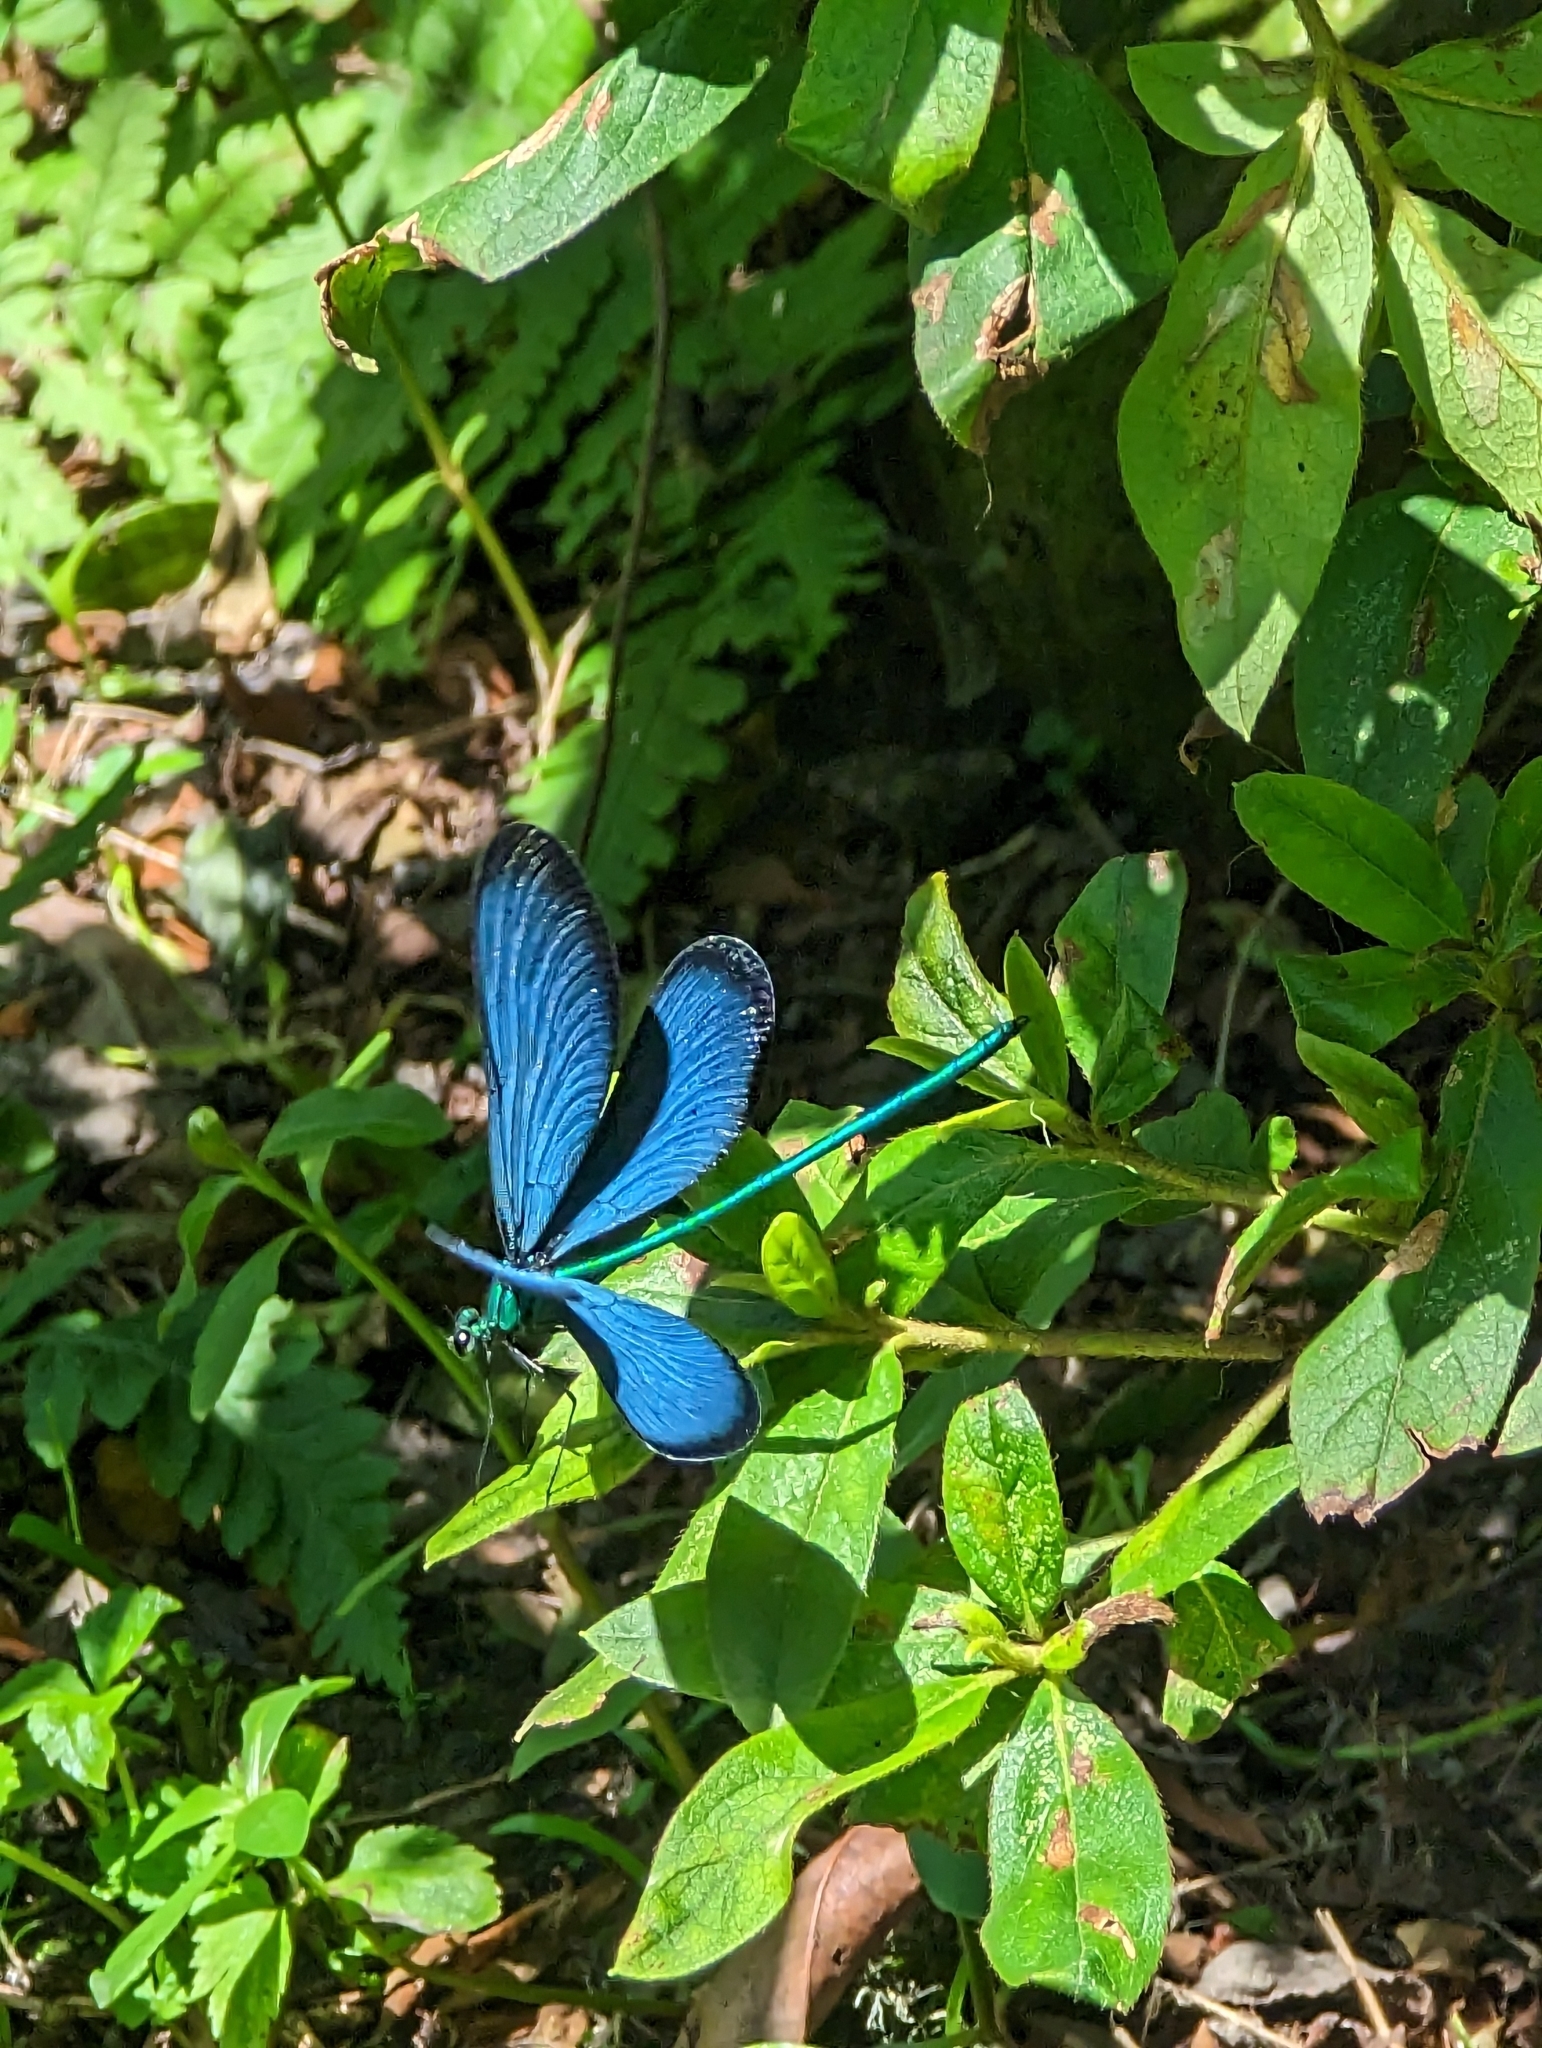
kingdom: Animalia
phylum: Arthropoda
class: Insecta
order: Odonata
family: Calopterygidae
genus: Matrona
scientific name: Matrona cyanoptera
